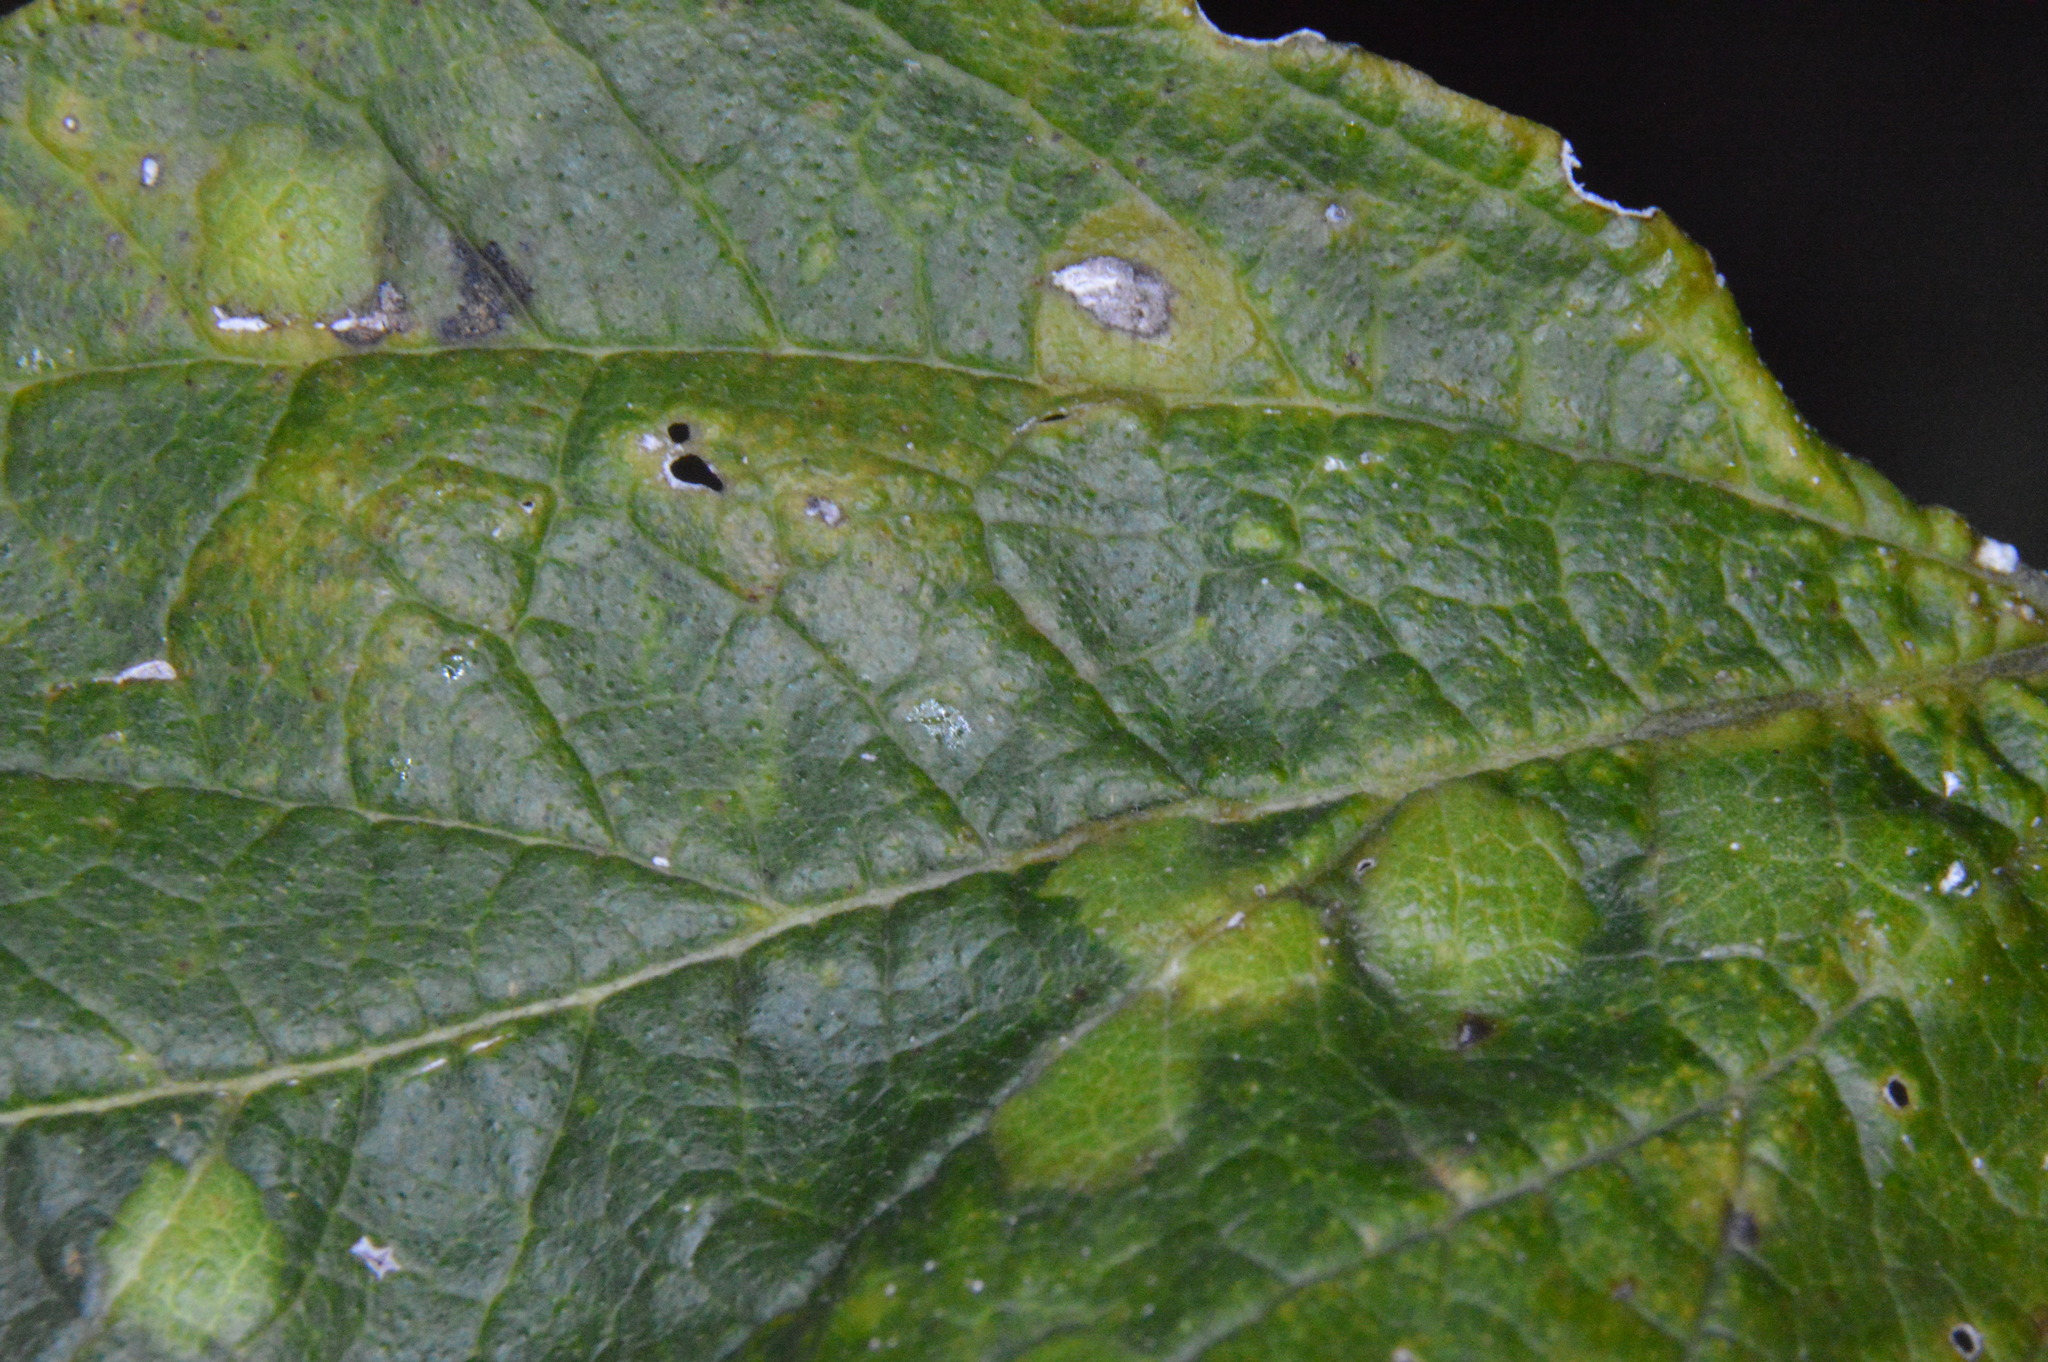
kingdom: Animalia
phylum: Arthropoda
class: Insecta
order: Hemiptera
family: Aphalaridae
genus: Pachypsylla
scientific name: Pachypsylla celtidisvesicula
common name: Hackberry blister gall psyllid
